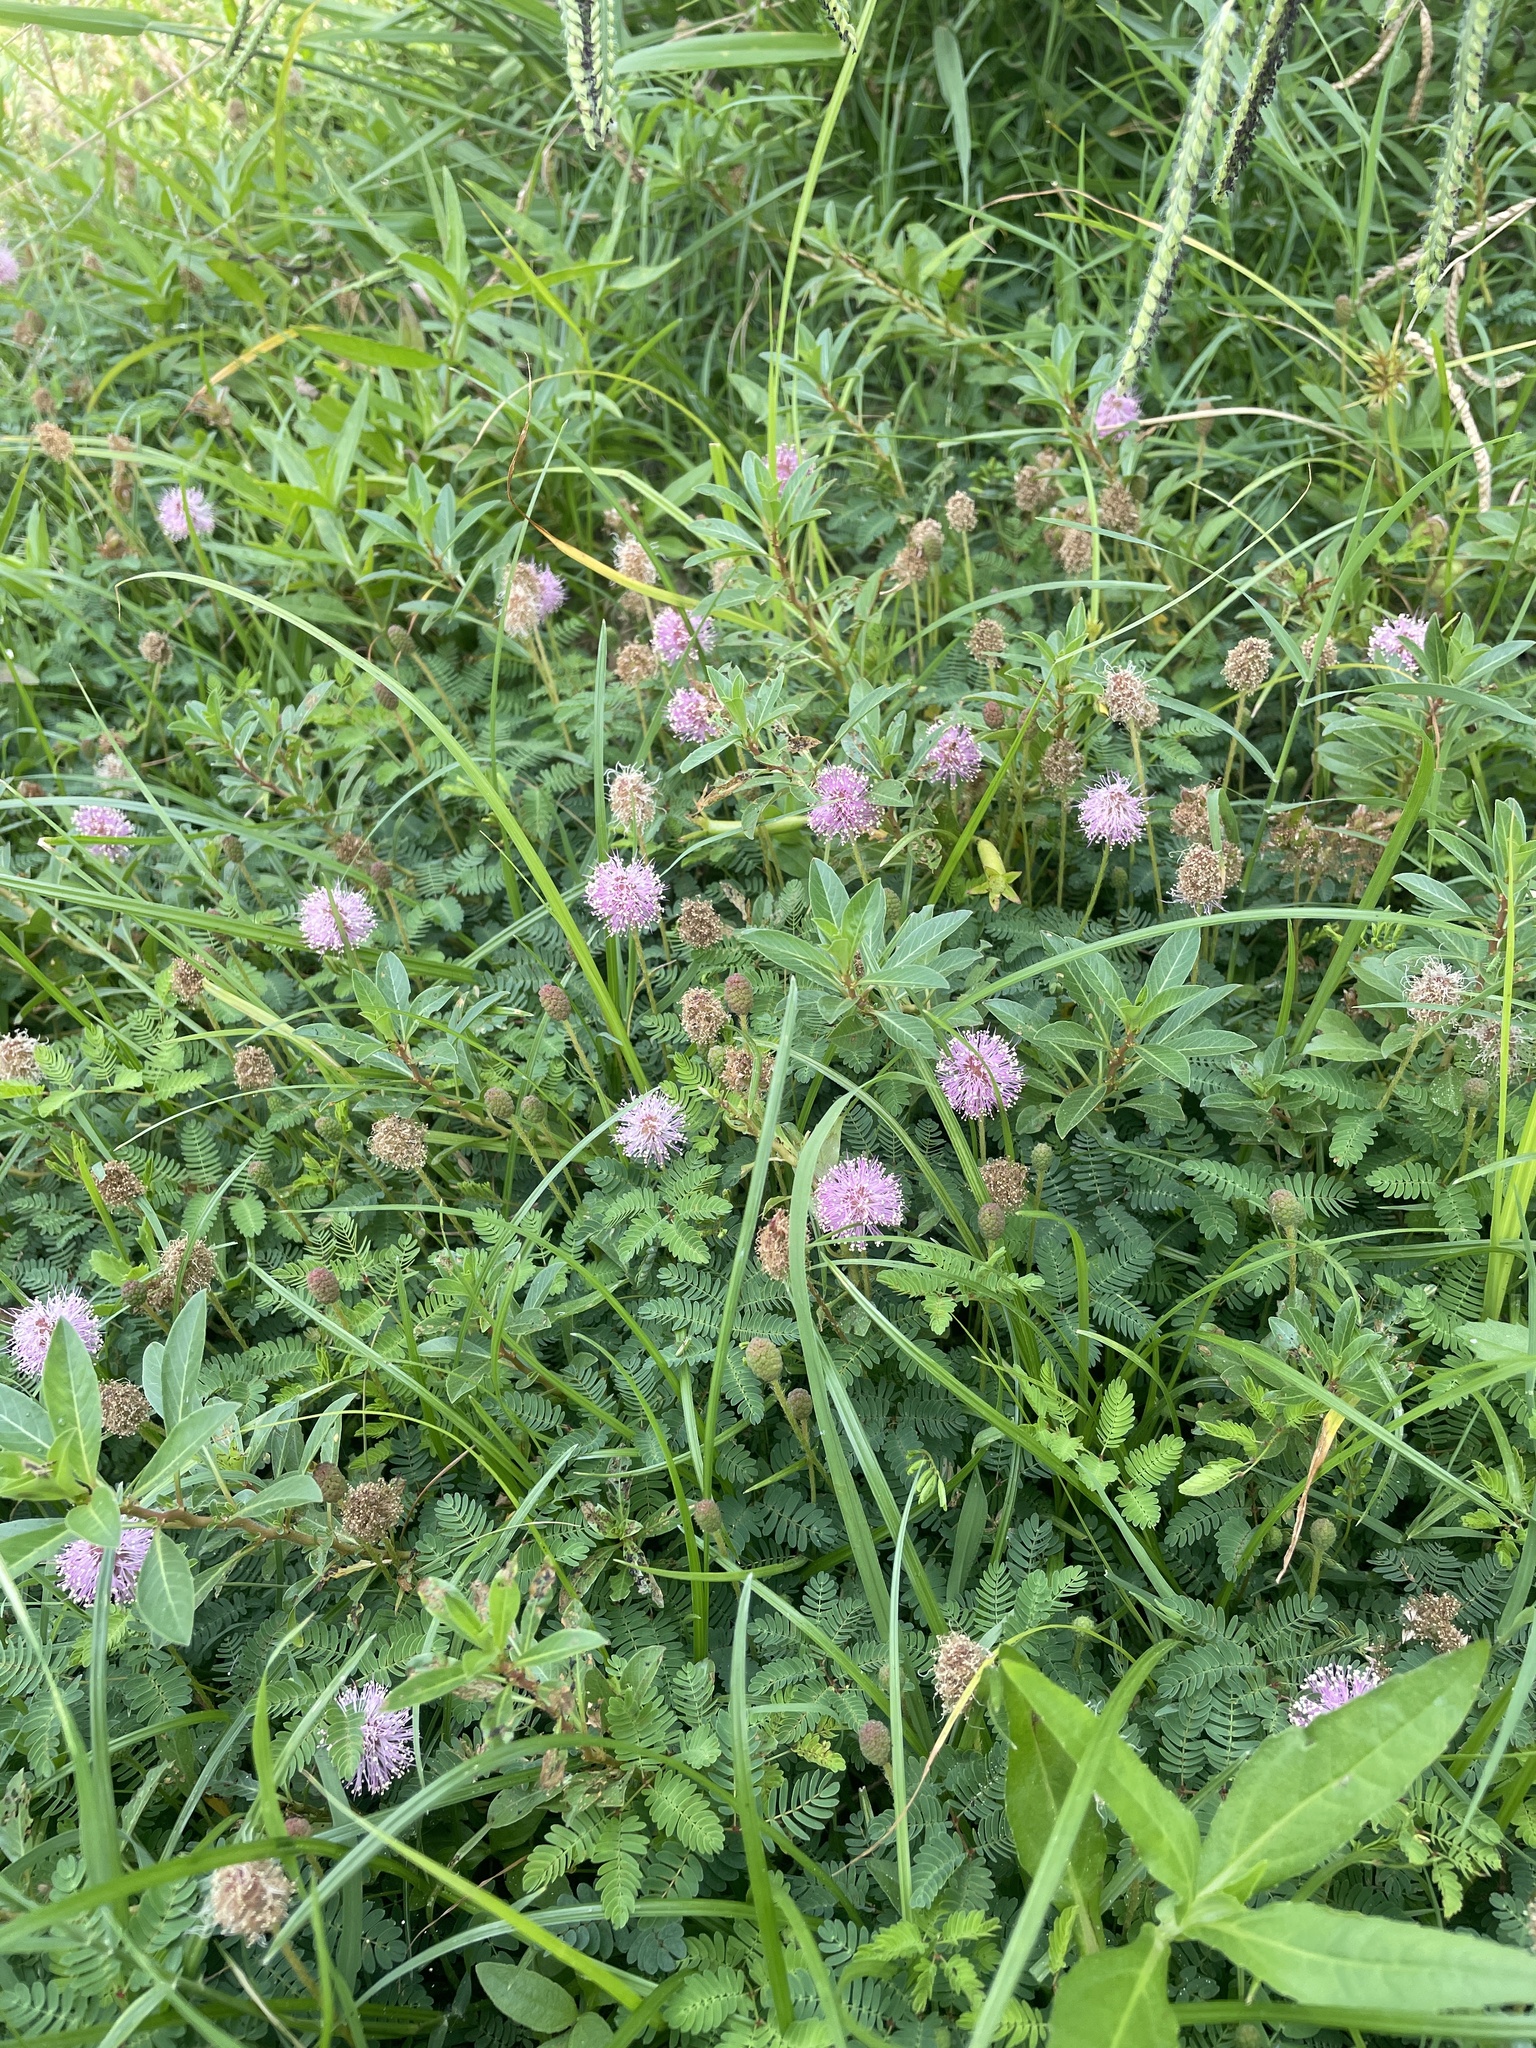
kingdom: Plantae
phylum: Tracheophyta
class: Magnoliopsida
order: Fabales
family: Fabaceae
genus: Mimosa
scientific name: Mimosa strigillosa
